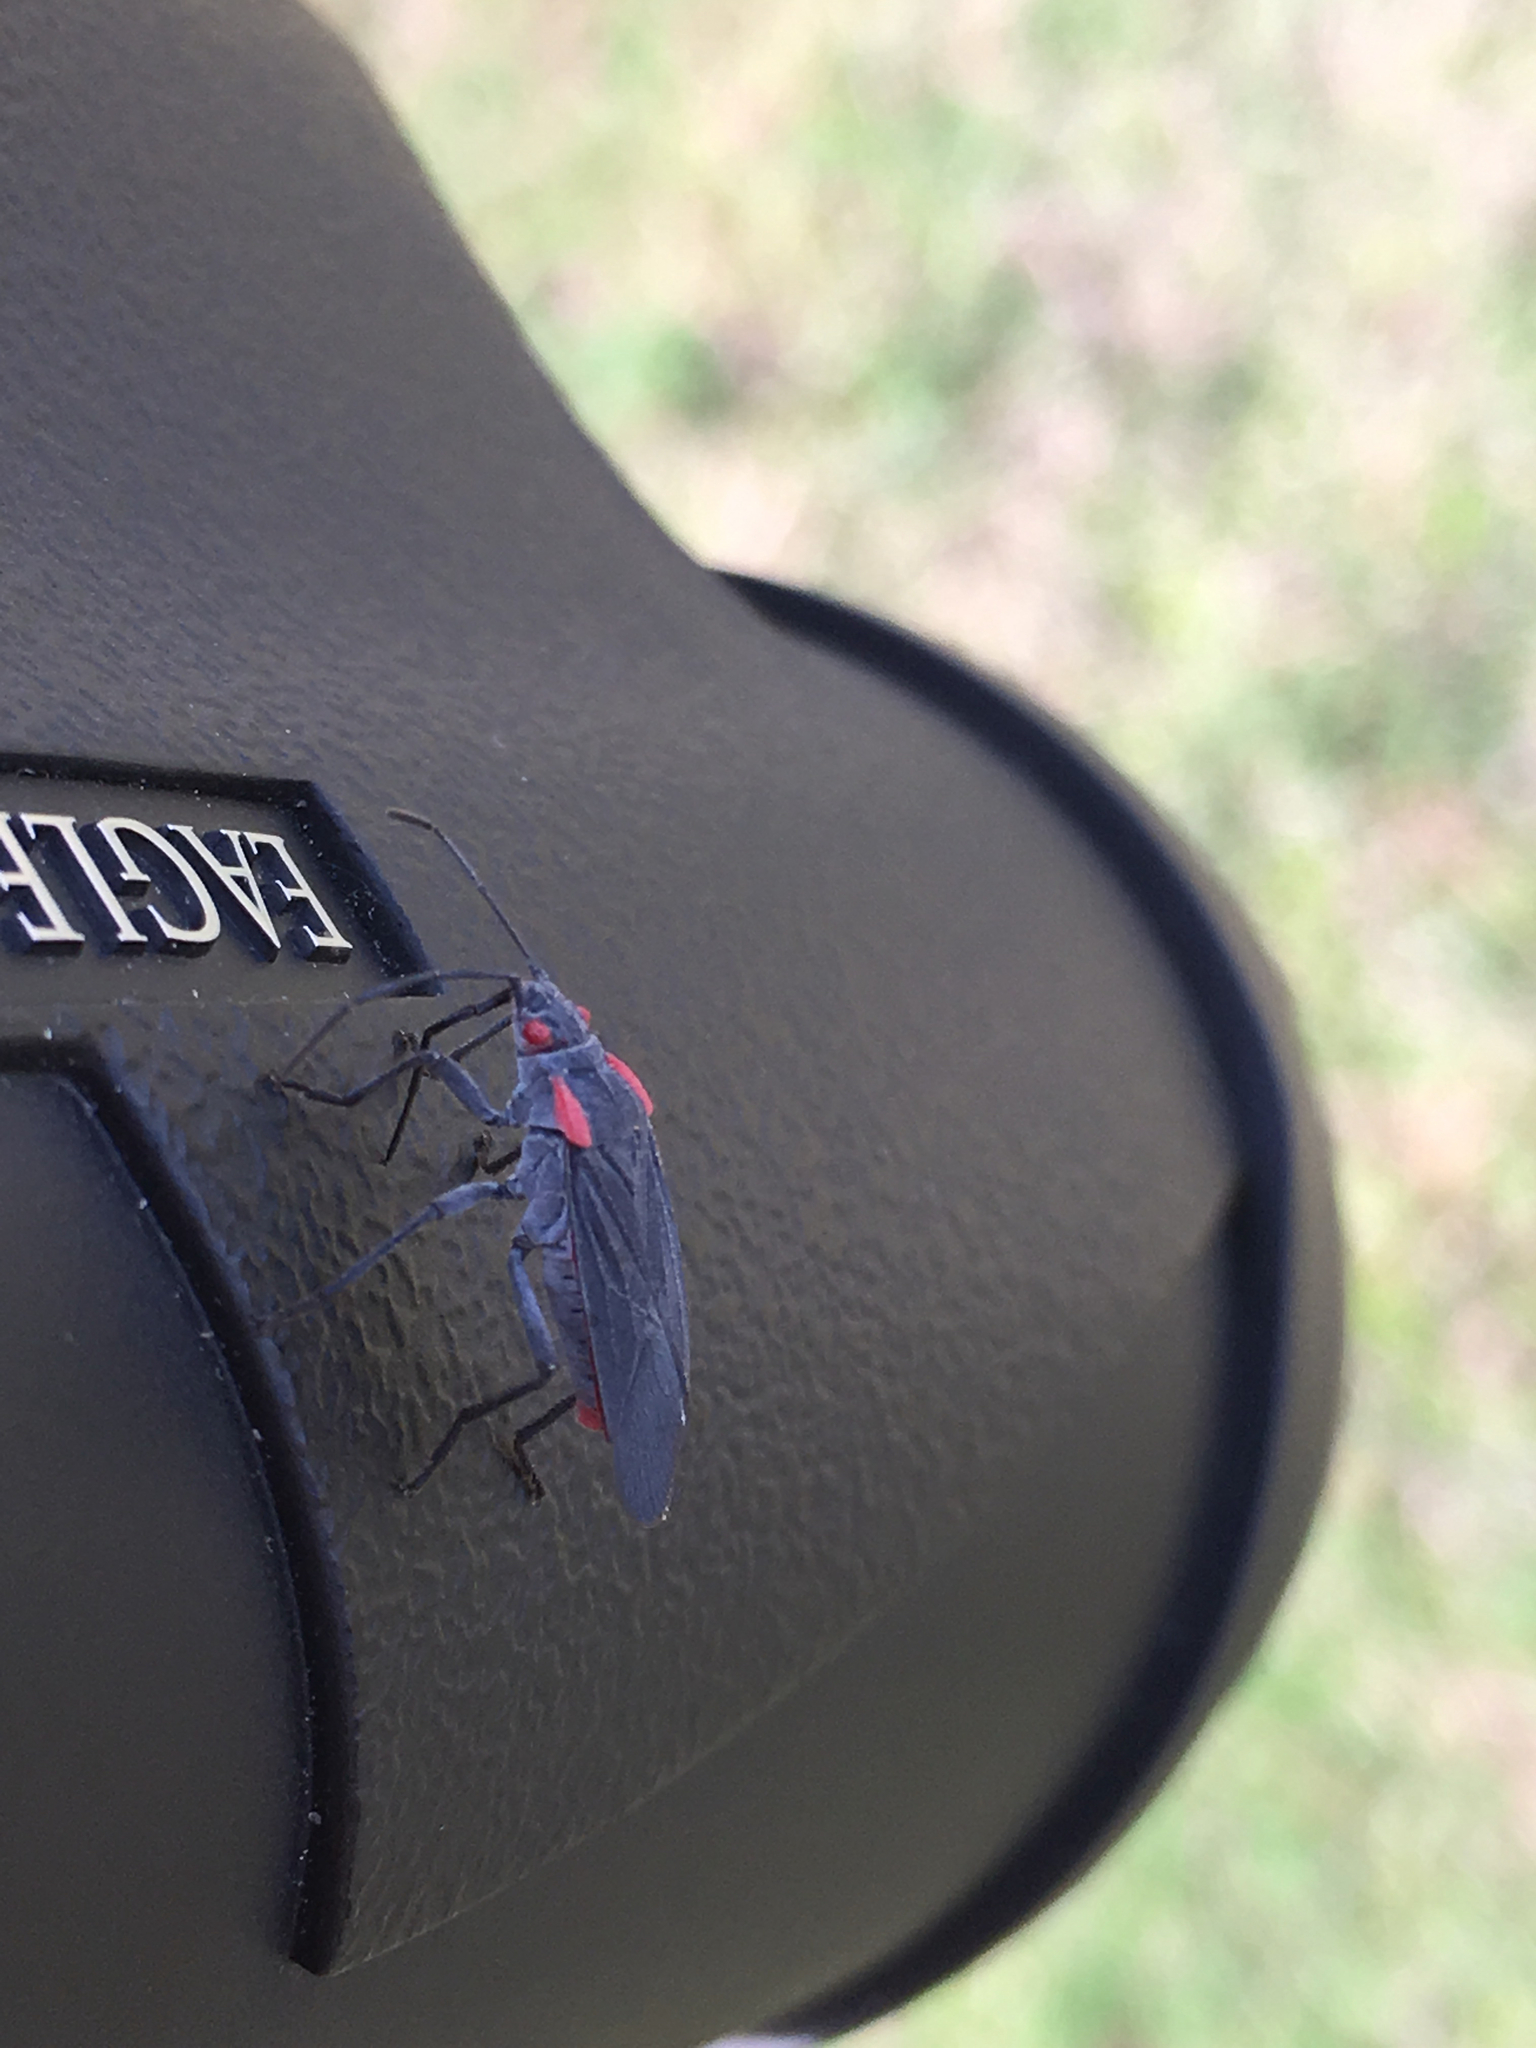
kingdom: Animalia
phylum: Arthropoda
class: Insecta
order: Hemiptera
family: Rhopalidae
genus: Jadera
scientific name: Jadera haematoloma
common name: Red-shouldered bug
